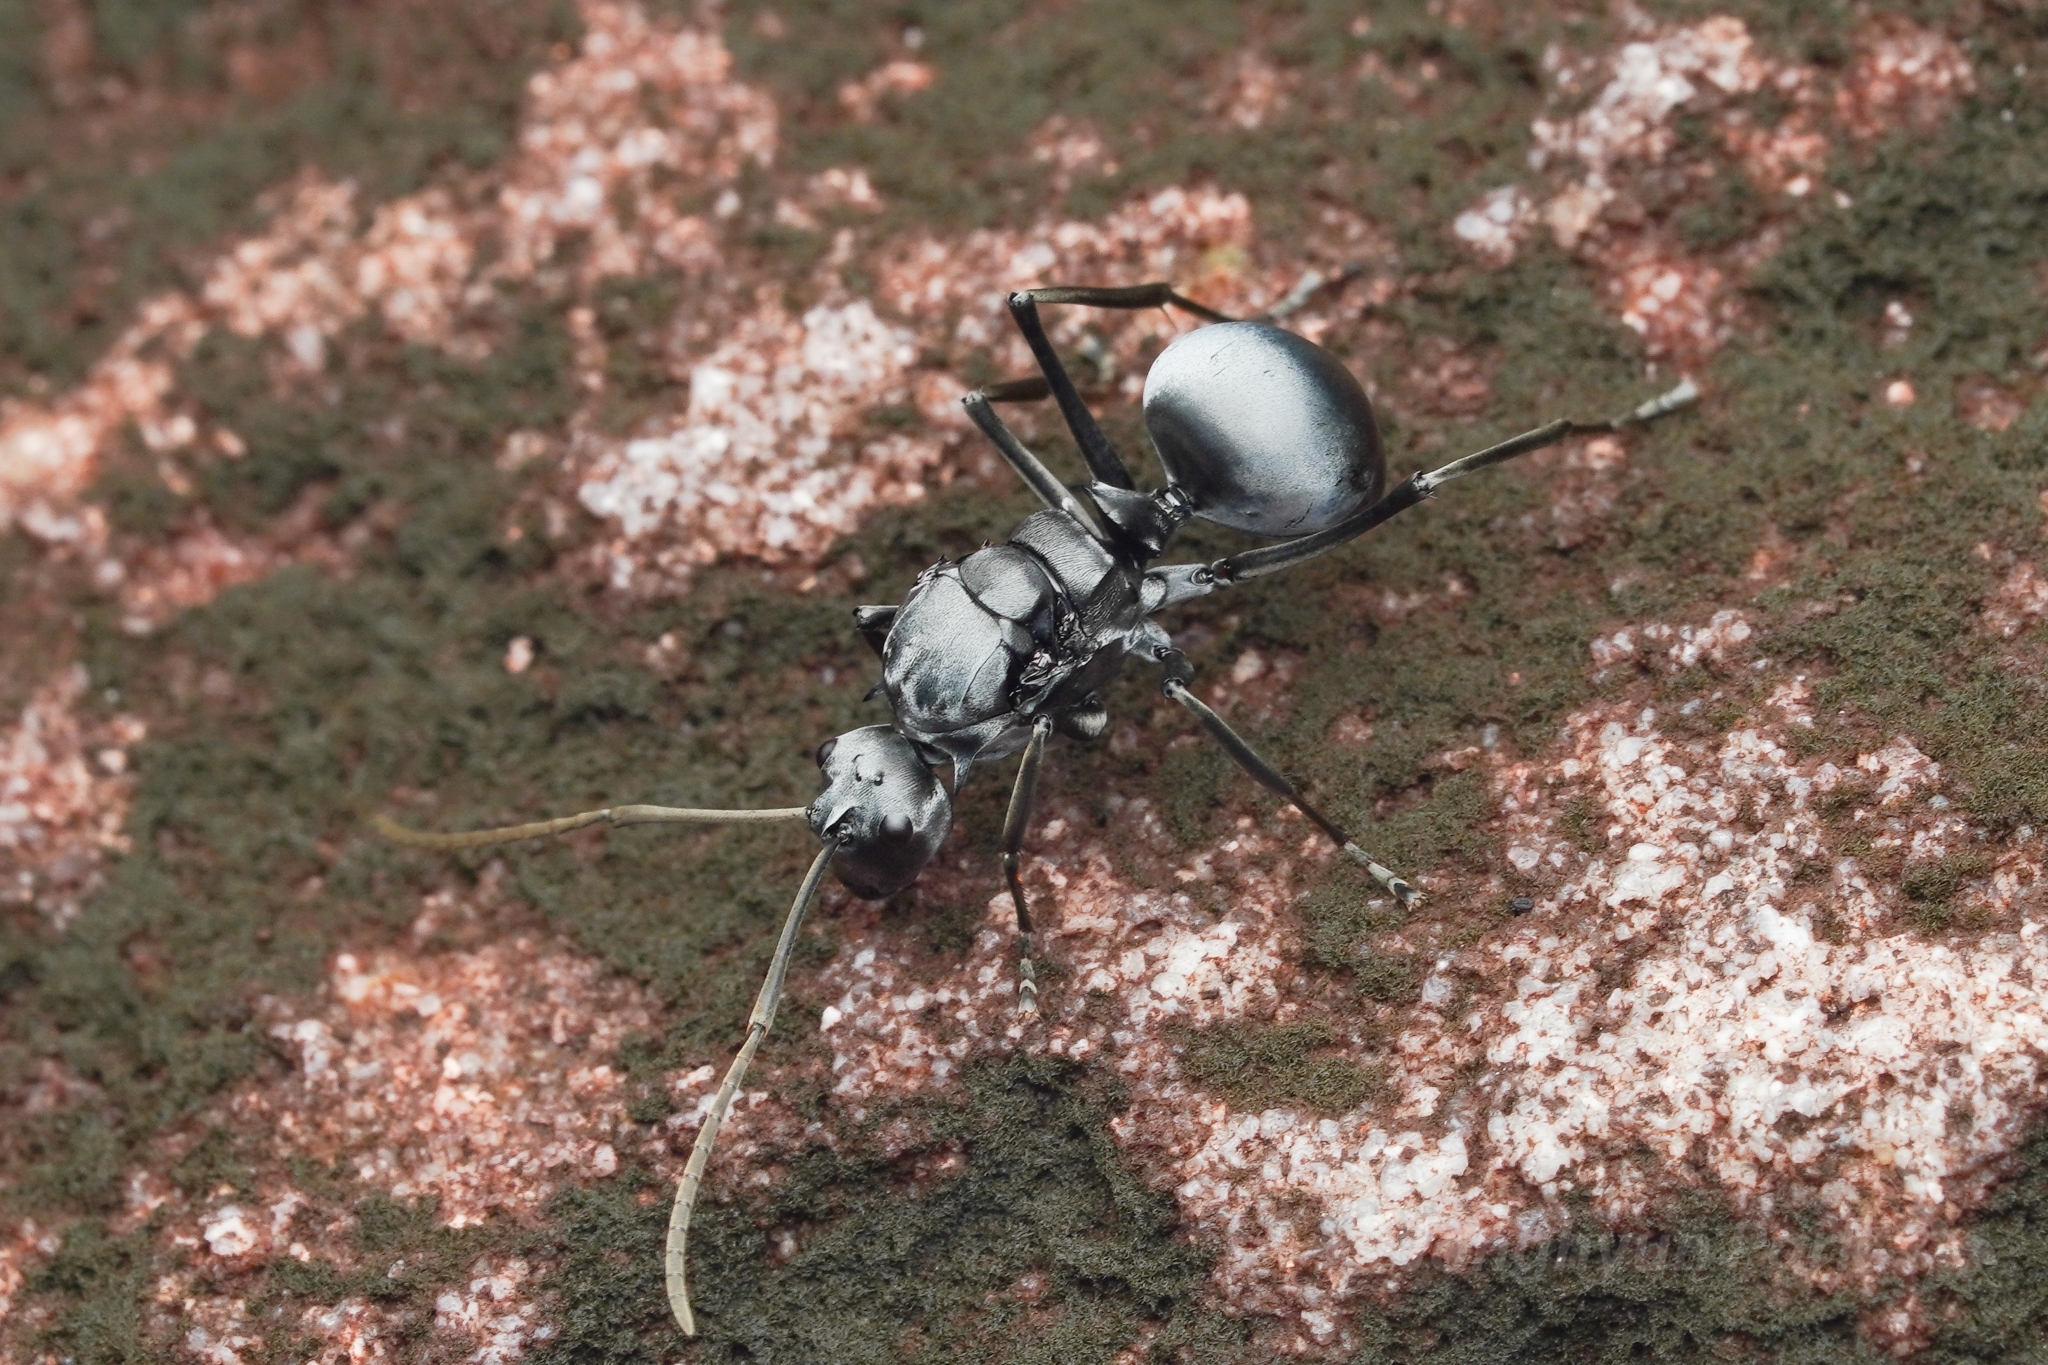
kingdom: Animalia
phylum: Arthropoda
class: Insecta
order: Hymenoptera
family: Formicidae
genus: Polyrhachis
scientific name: Polyrhachis pruinosa
